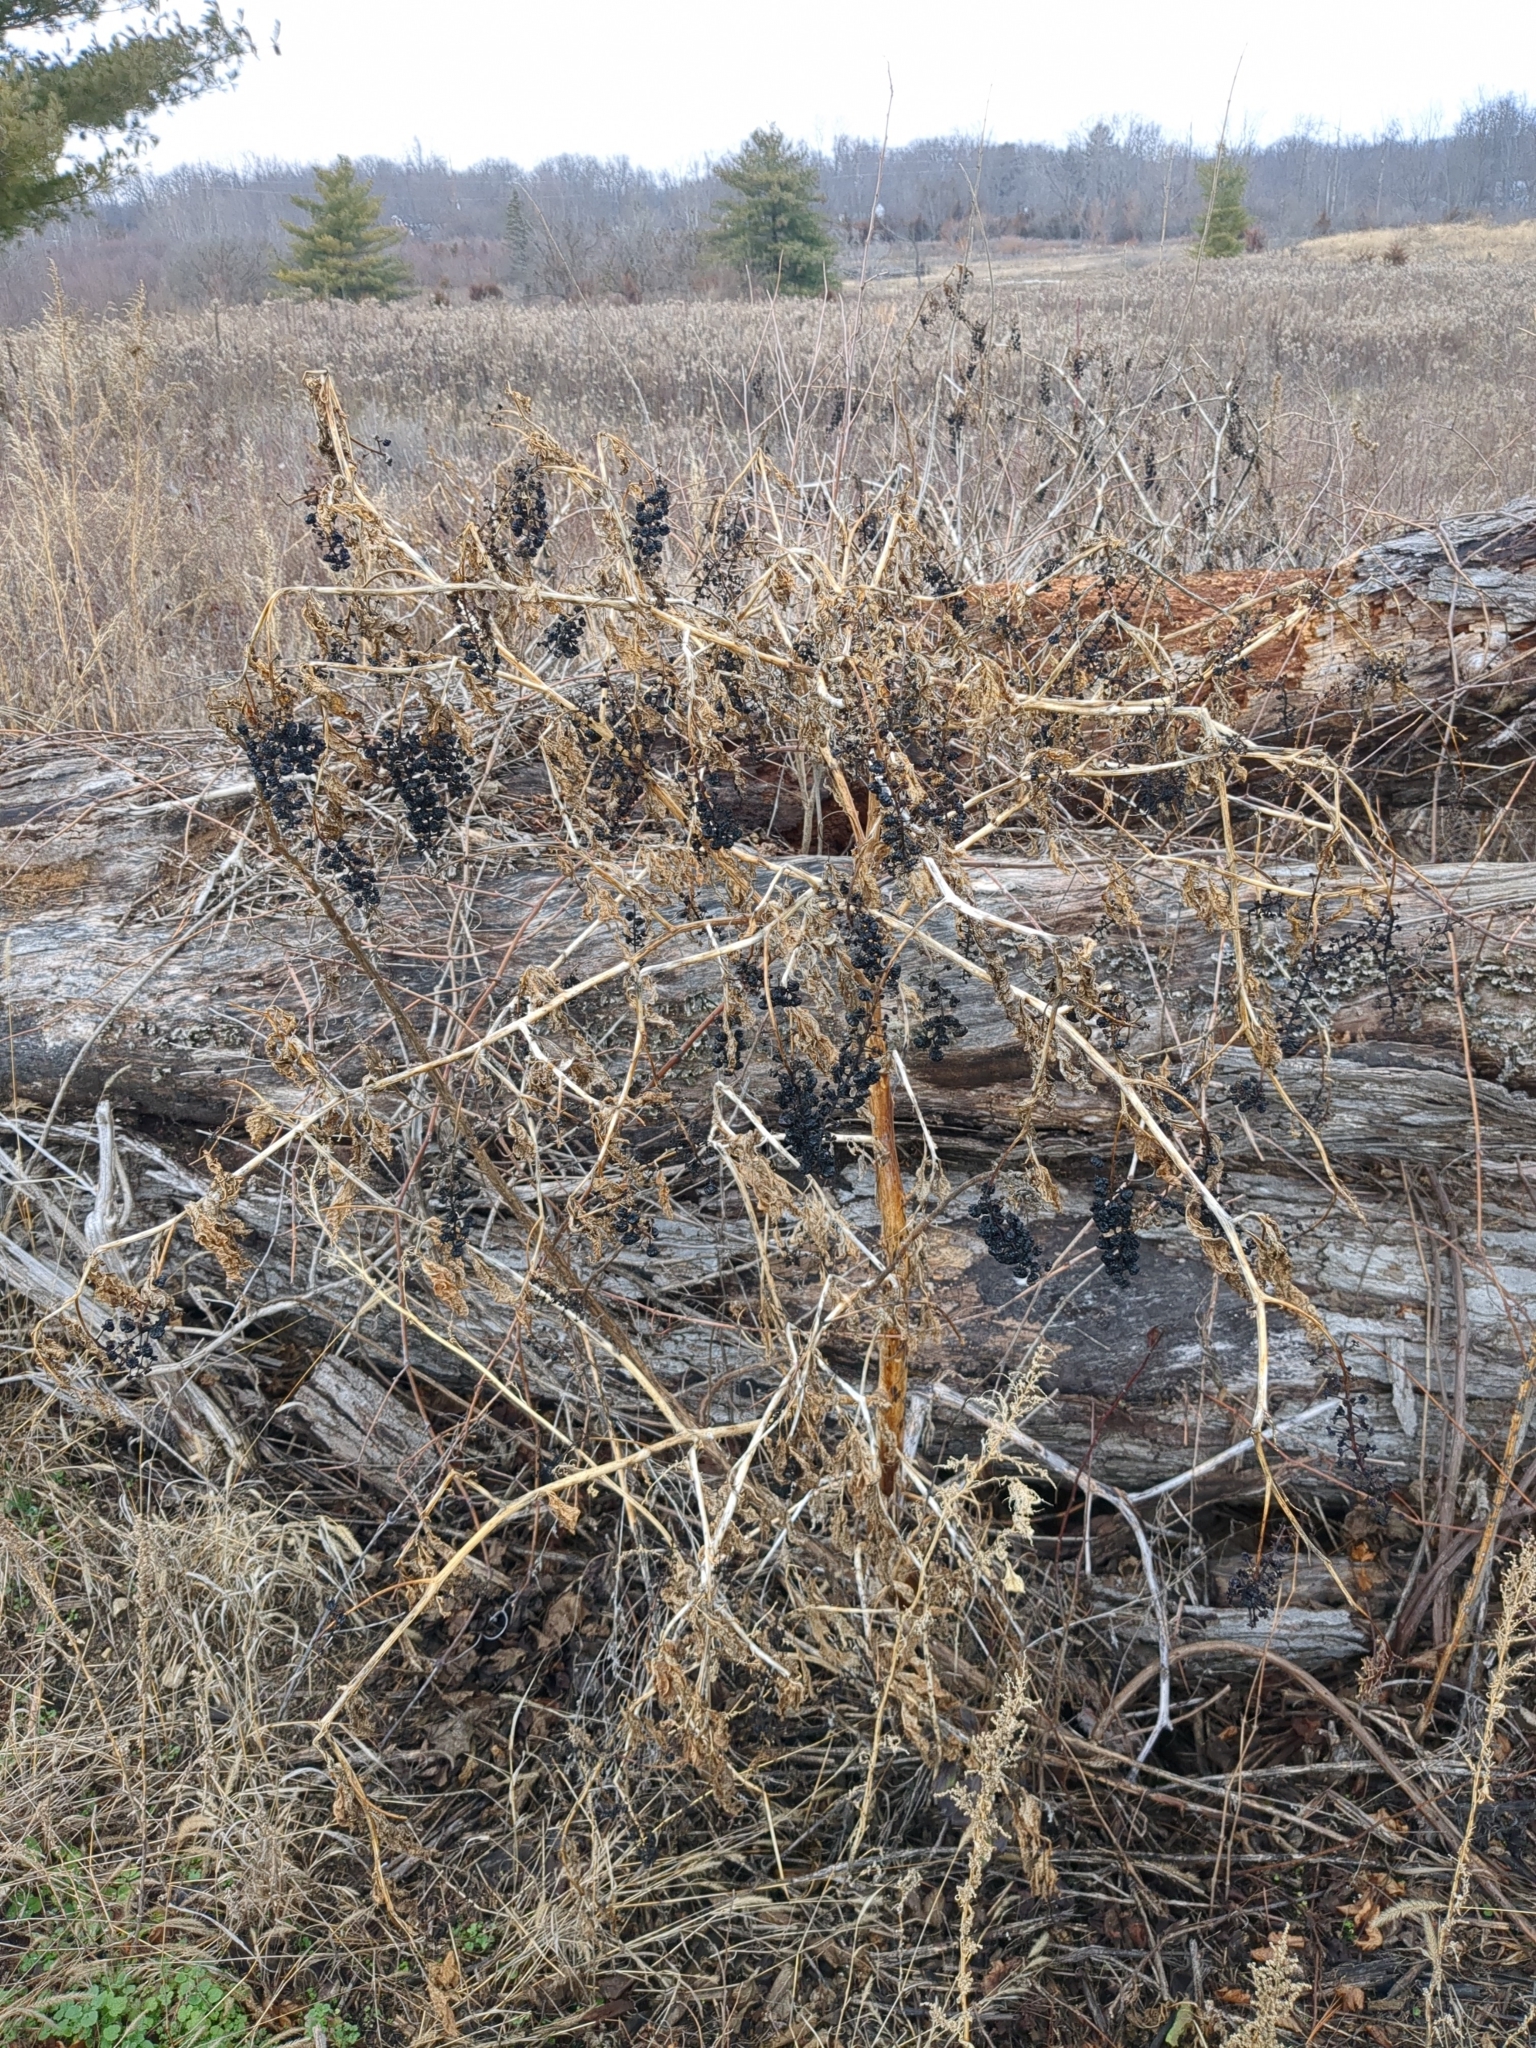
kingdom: Plantae
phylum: Tracheophyta
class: Magnoliopsida
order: Caryophyllales
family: Phytolaccaceae
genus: Phytolacca
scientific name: Phytolacca americana
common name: American pokeweed
